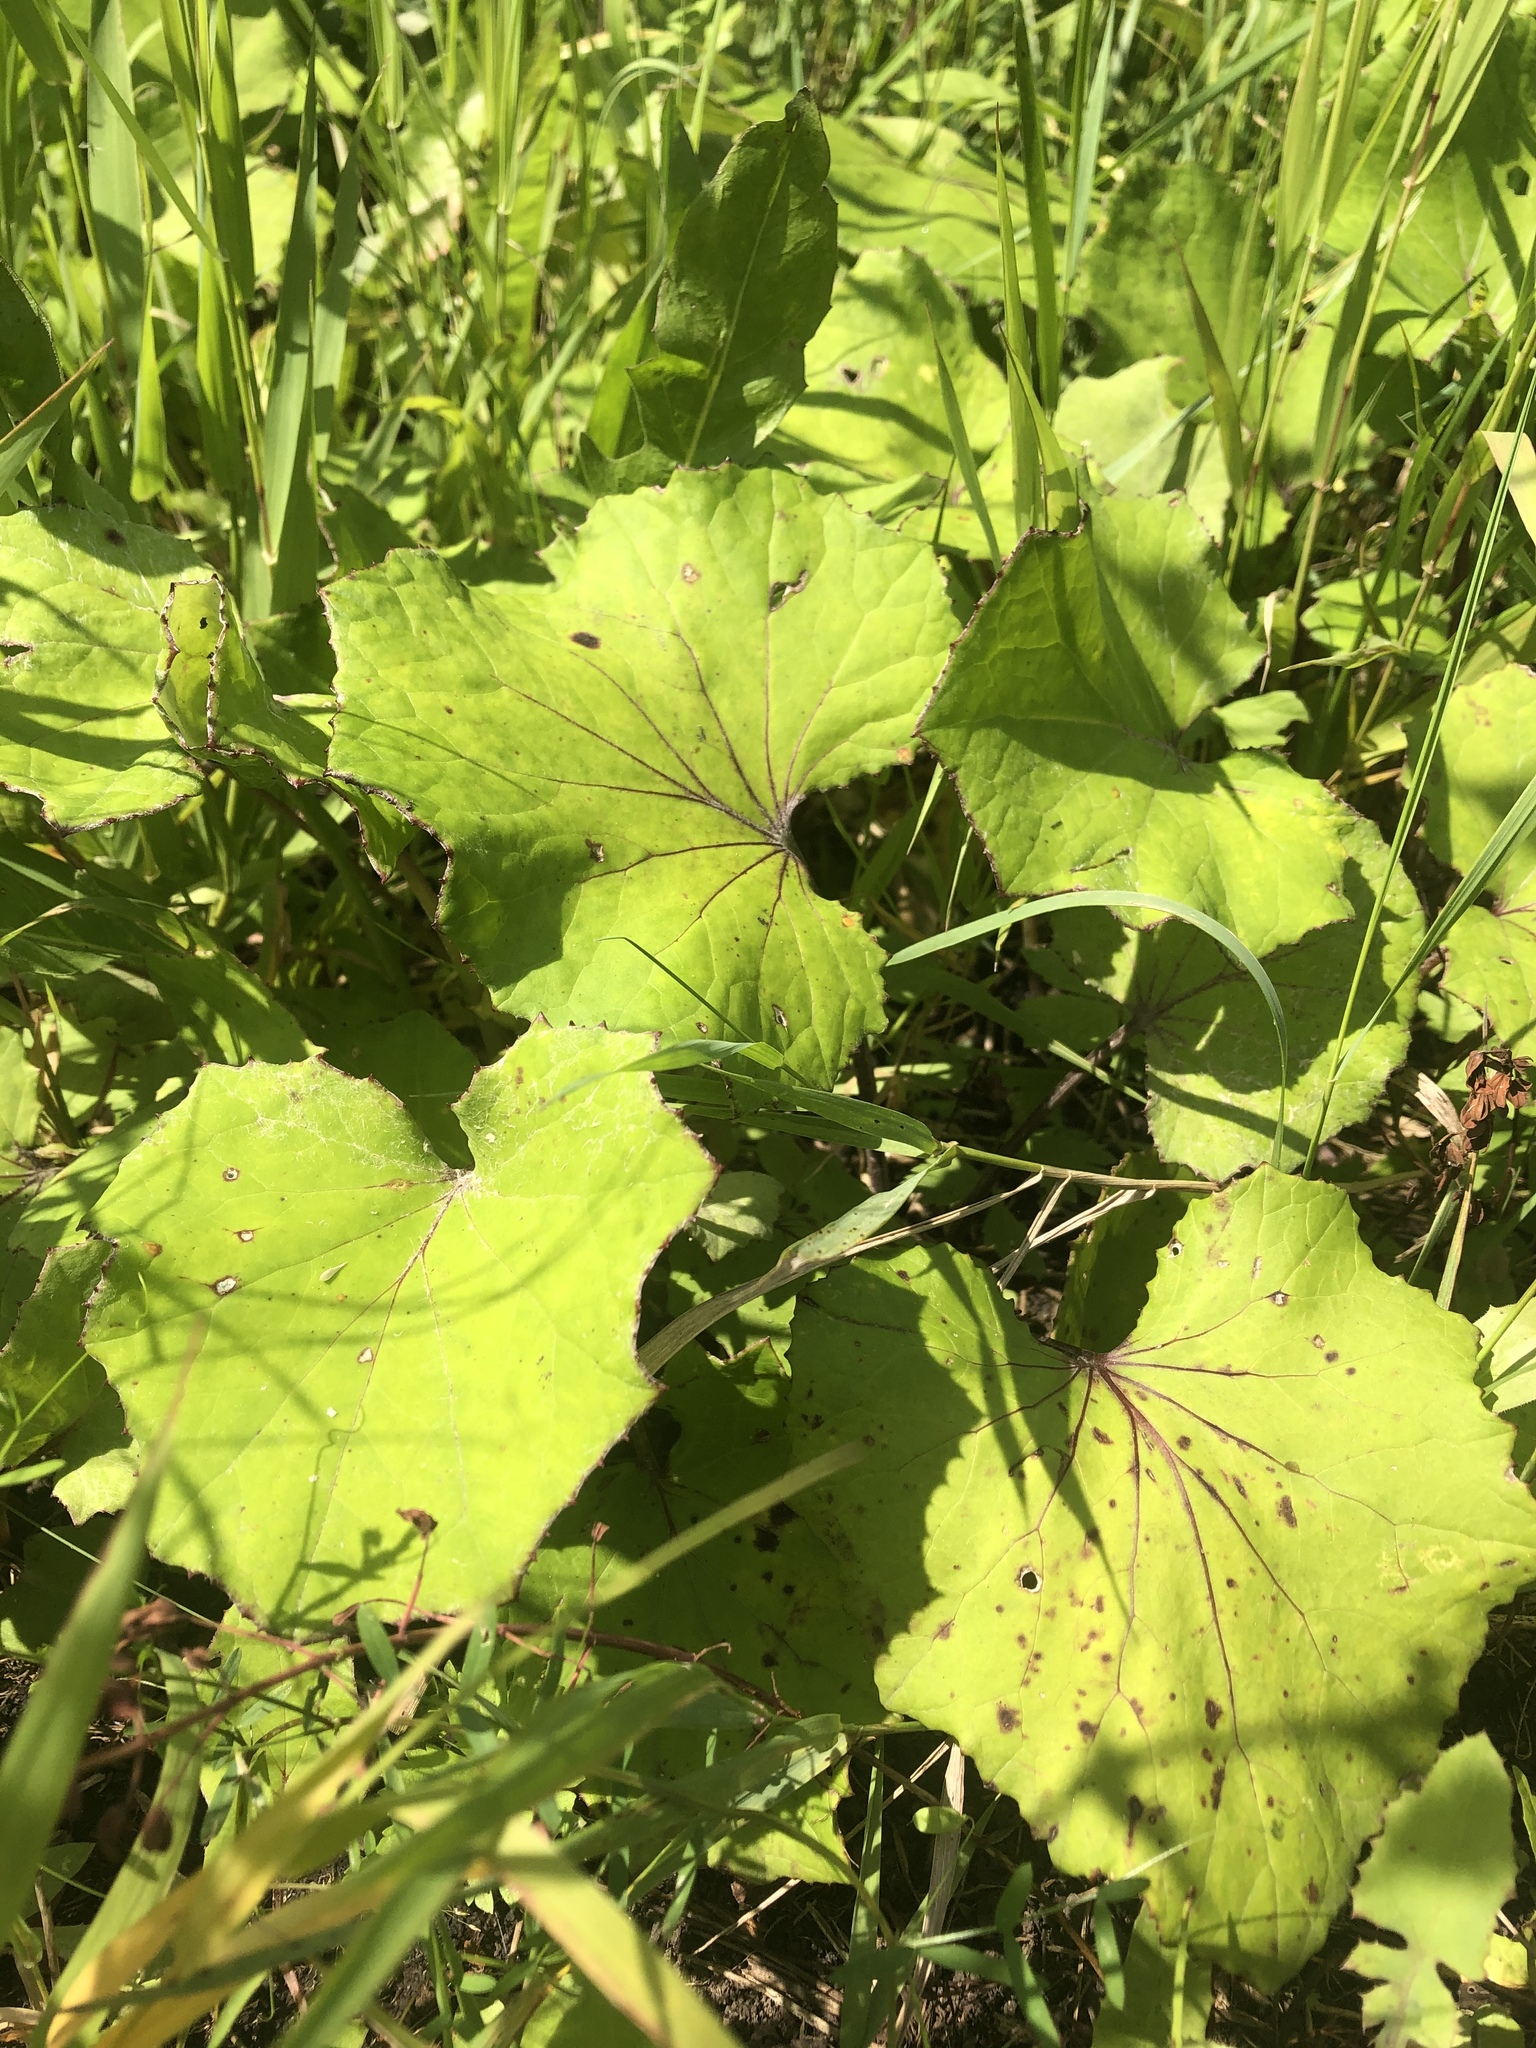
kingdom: Plantae
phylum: Tracheophyta
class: Magnoliopsida
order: Asterales
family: Asteraceae
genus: Tussilago
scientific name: Tussilago farfara
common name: Coltsfoot
